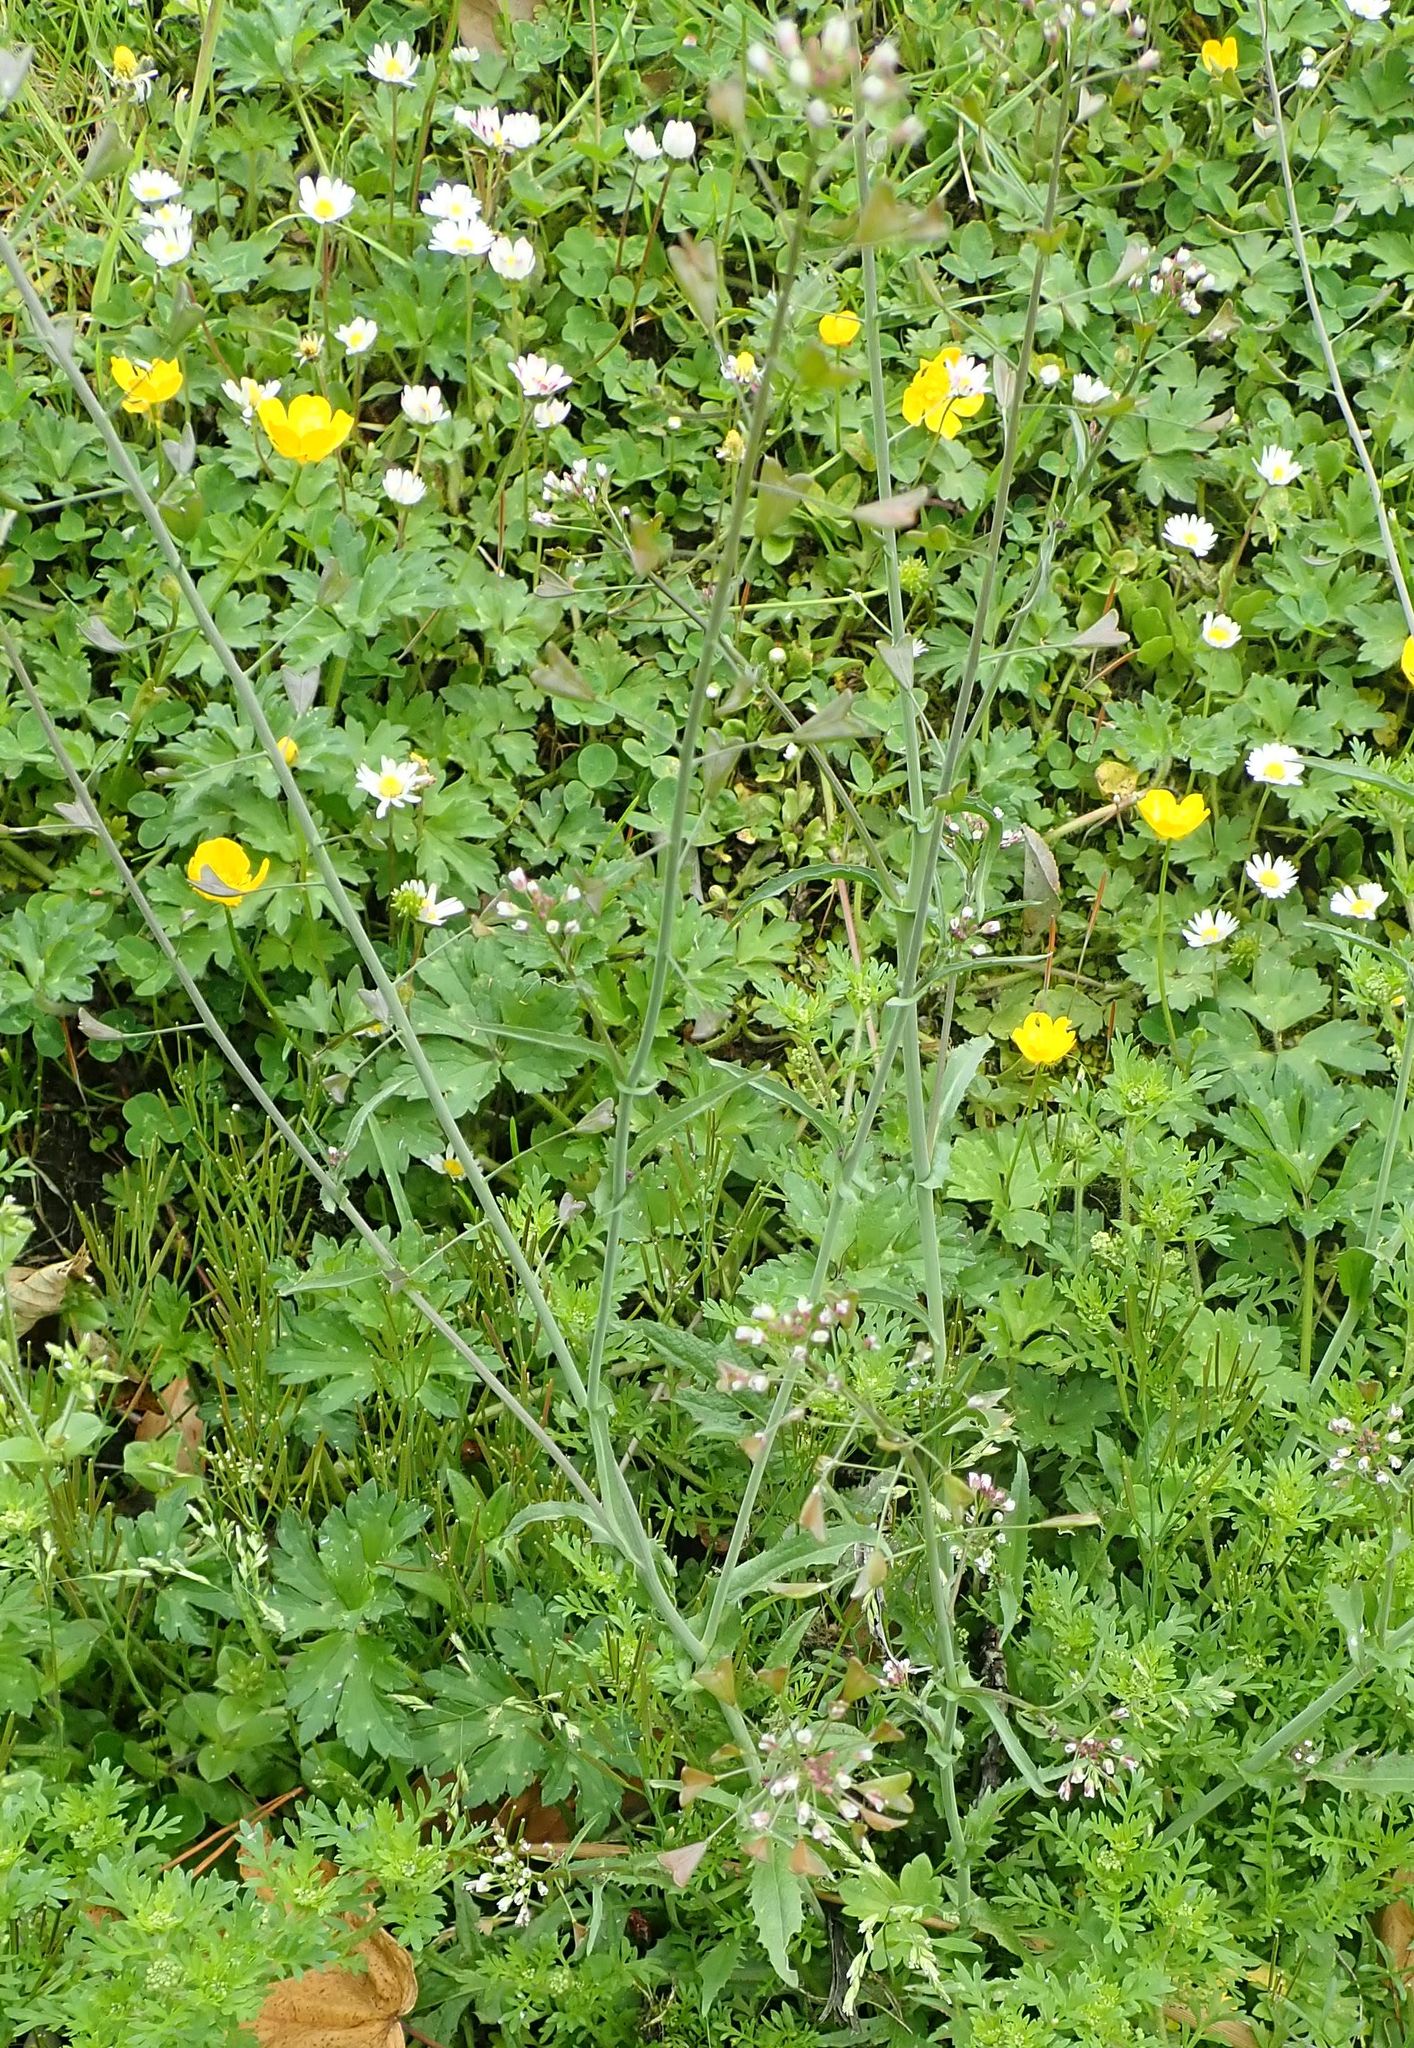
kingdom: Plantae
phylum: Tracheophyta
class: Magnoliopsida
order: Brassicales
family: Brassicaceae
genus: Capsella
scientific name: Capsella bursa-pastoris
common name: Shepherd's purse
